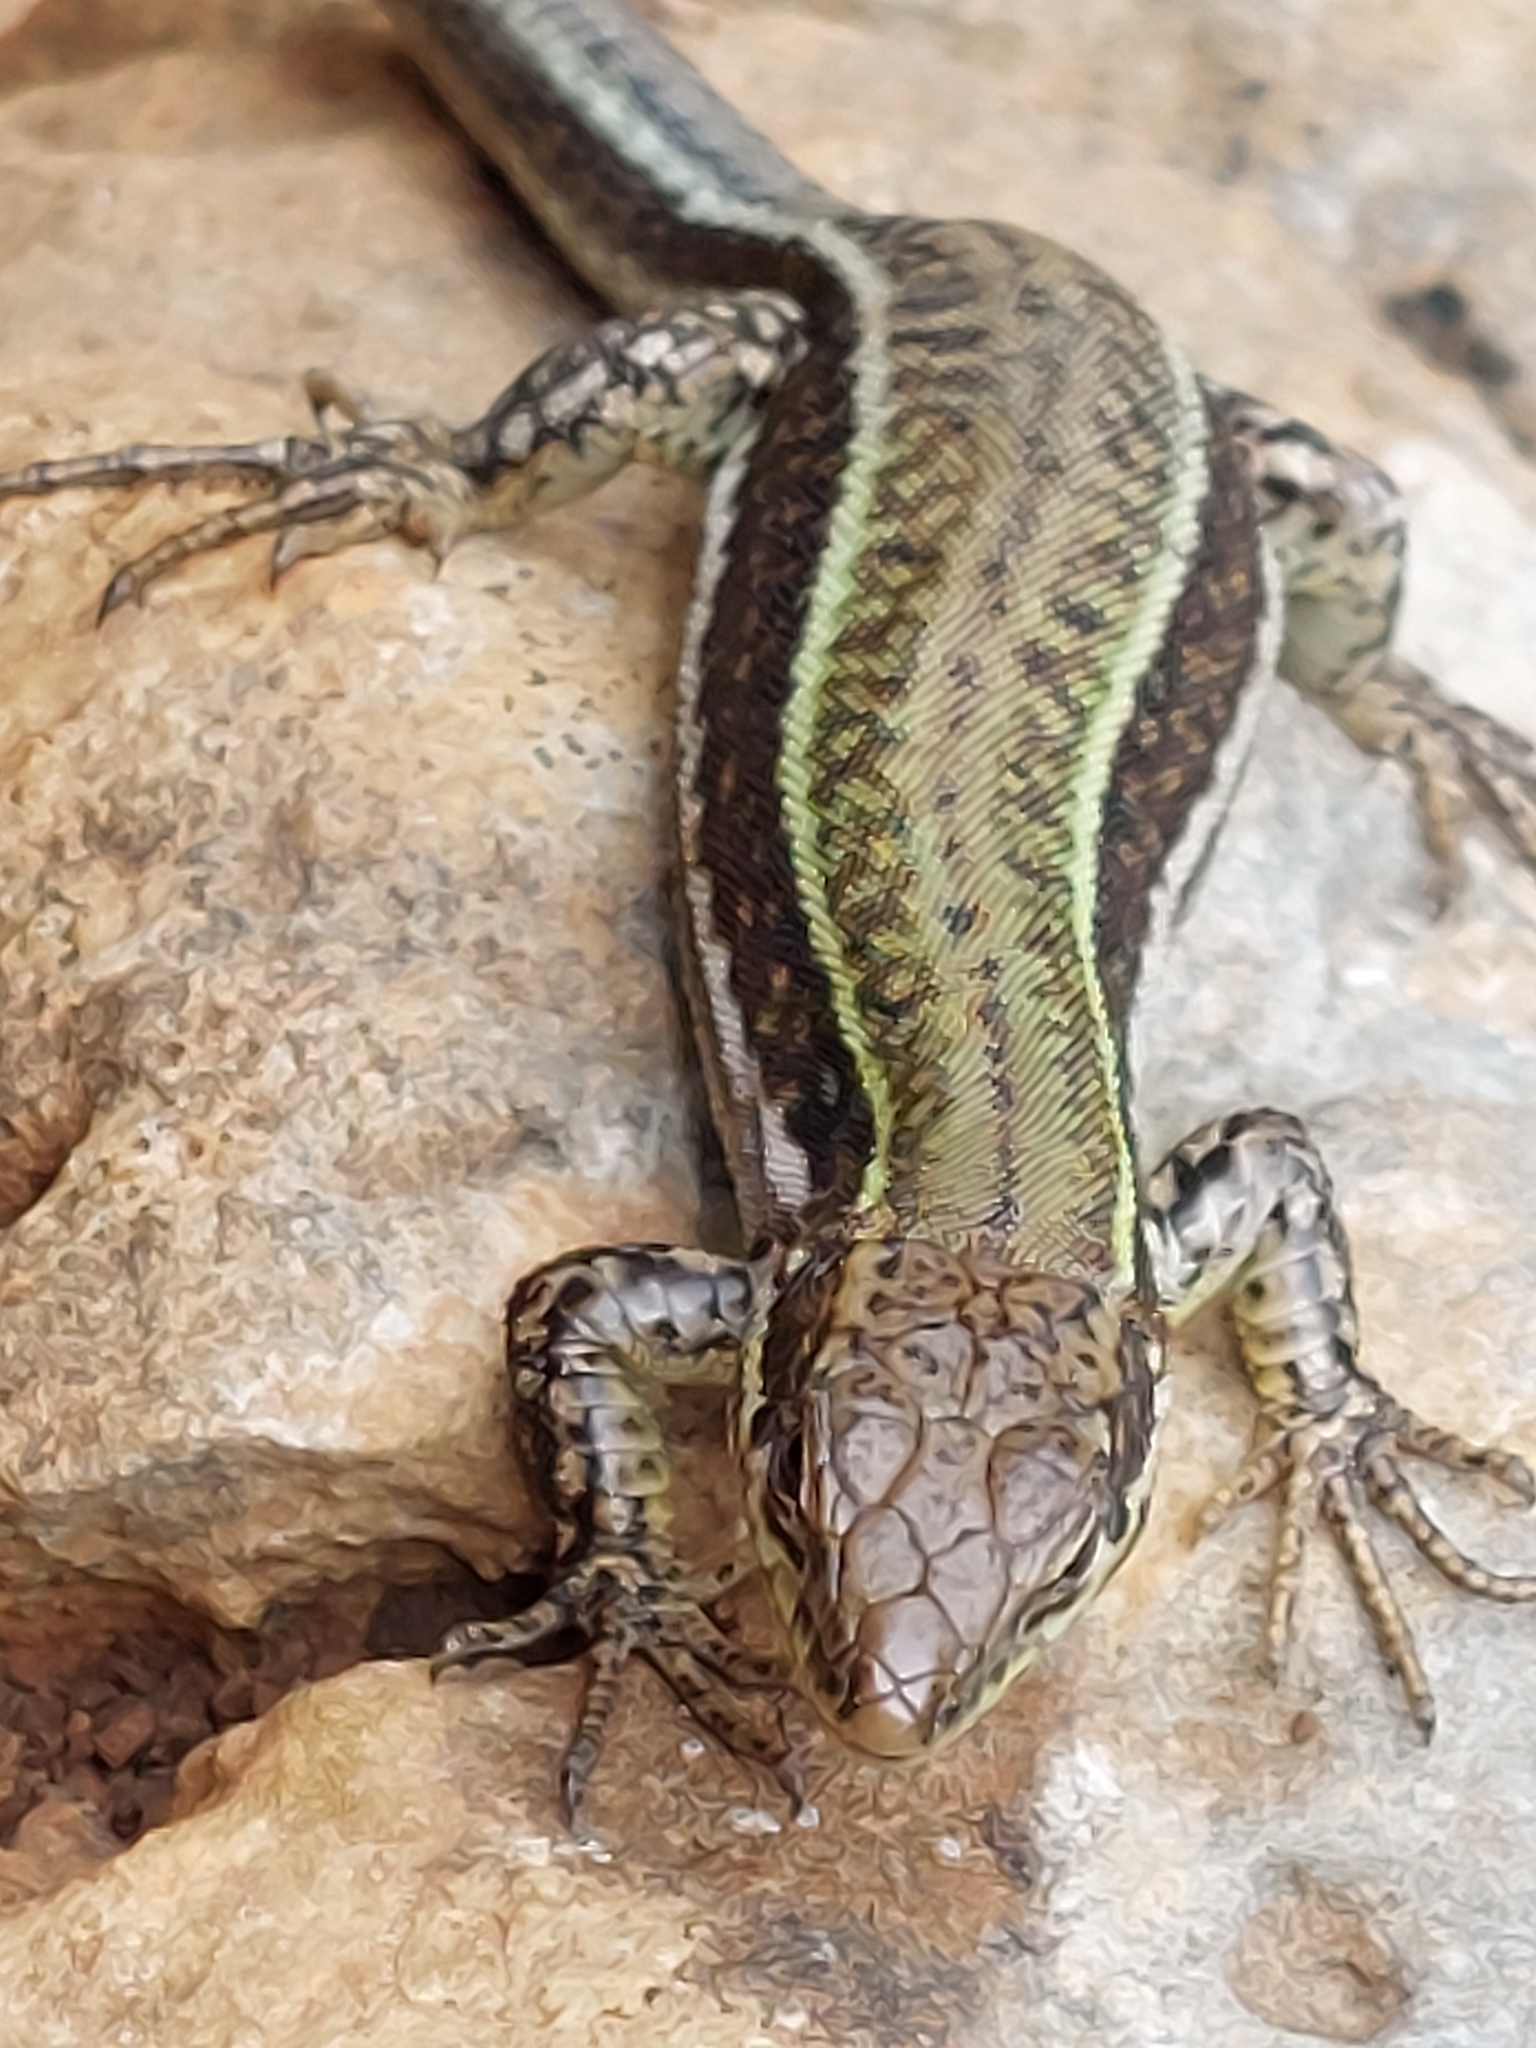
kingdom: Animalia
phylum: Chordata
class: Squamata
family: Lacertidae
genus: Podarcis
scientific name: Podarcis cretensis
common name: Cretan wall lizard
